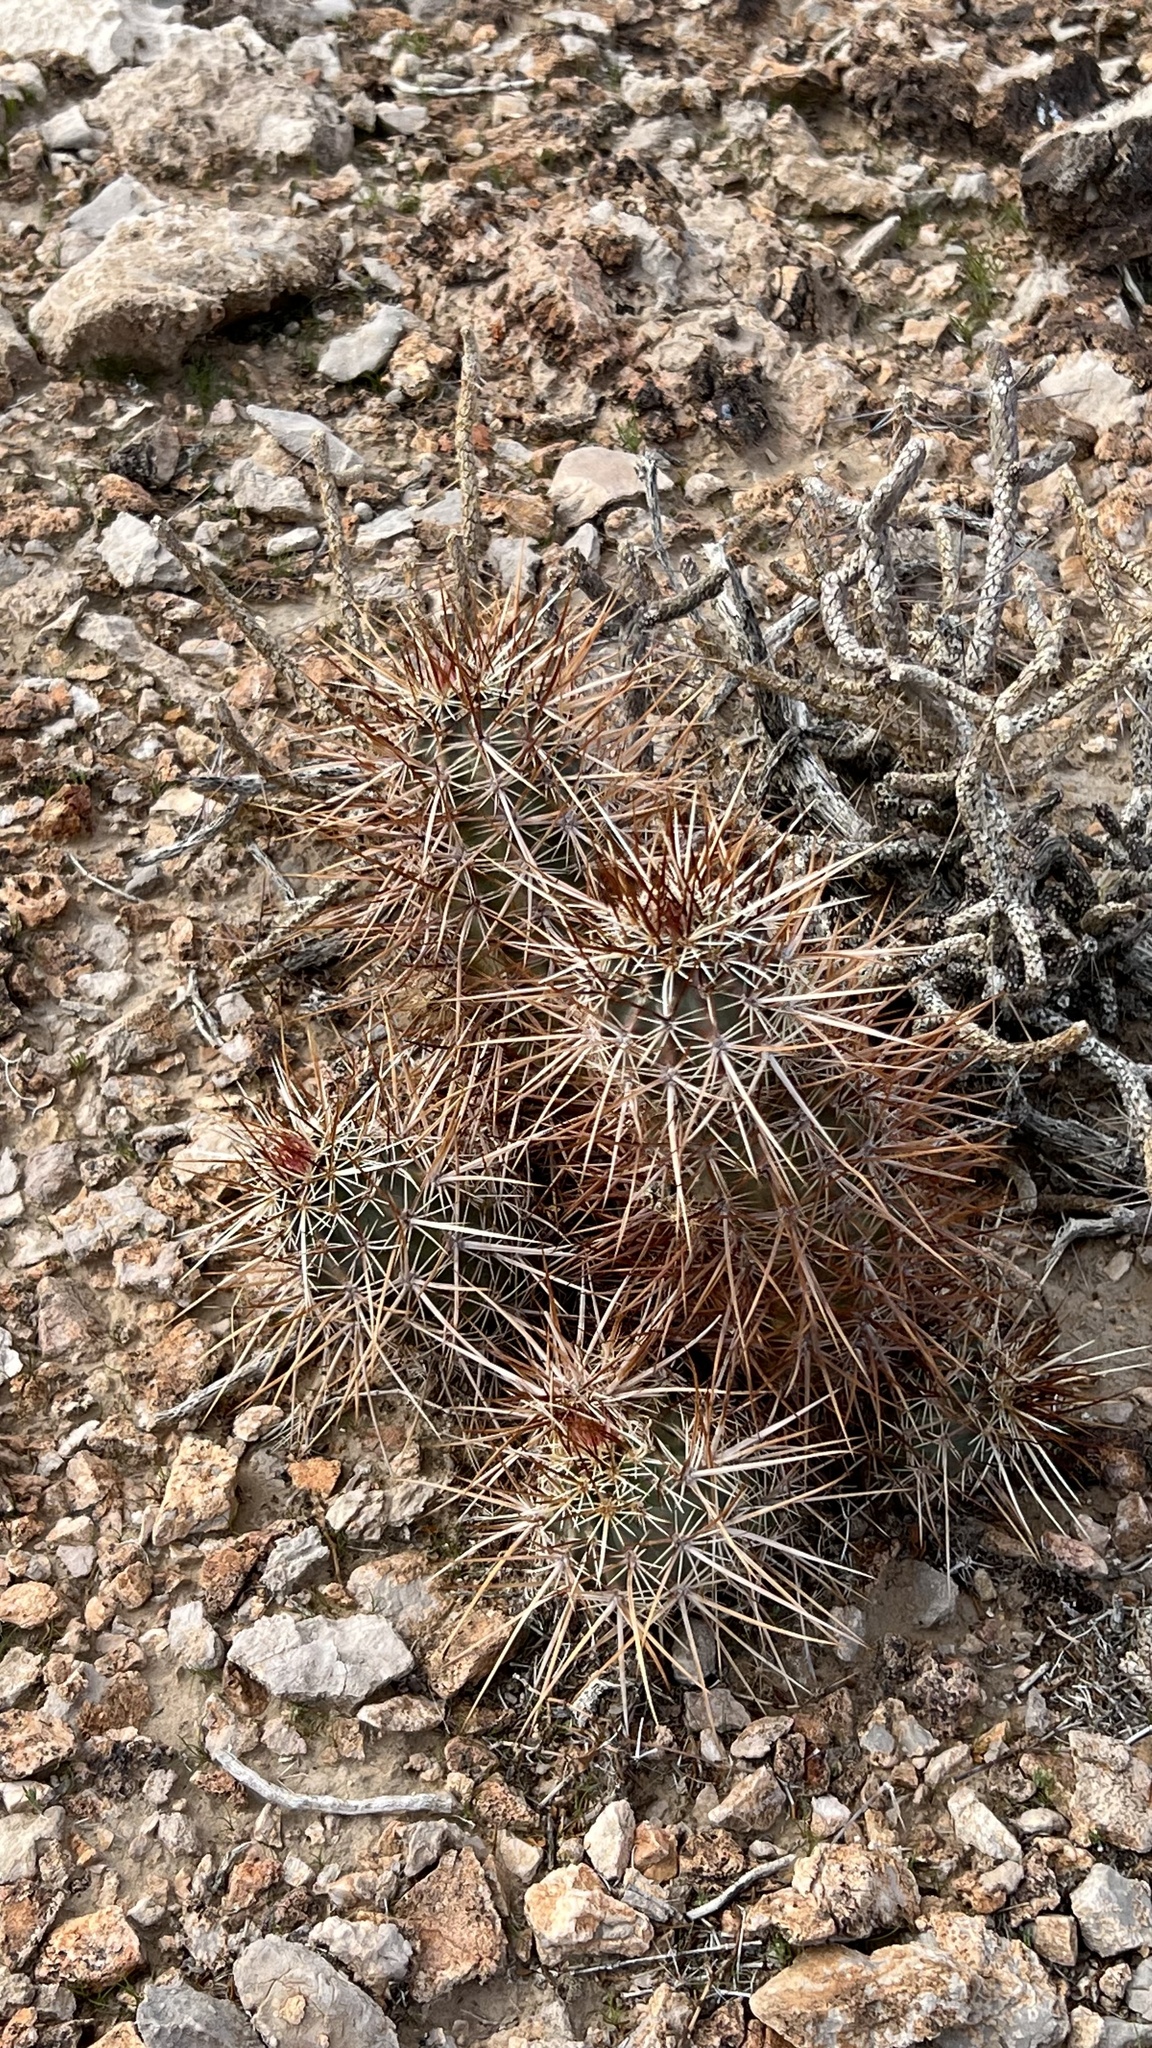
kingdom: Plantae
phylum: Tracheophyta
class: Magnoliopsida
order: Caryophyllales
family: Cactaceae
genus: Echinocereus
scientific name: Echinocereus engelmannii
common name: Engelmann's hedgehog cactus
